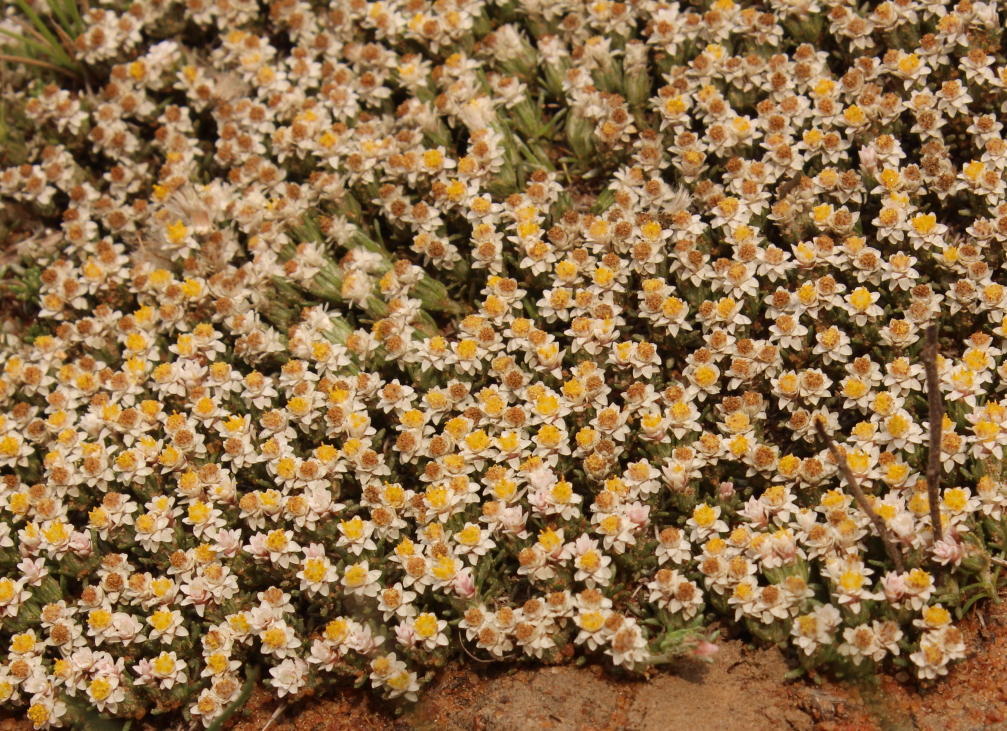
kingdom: Plantae
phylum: Tracheophyta
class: Magnoliopsida
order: Asterales
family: Asteraceae
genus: Helichrysum
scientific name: Helichrysum caespititium
